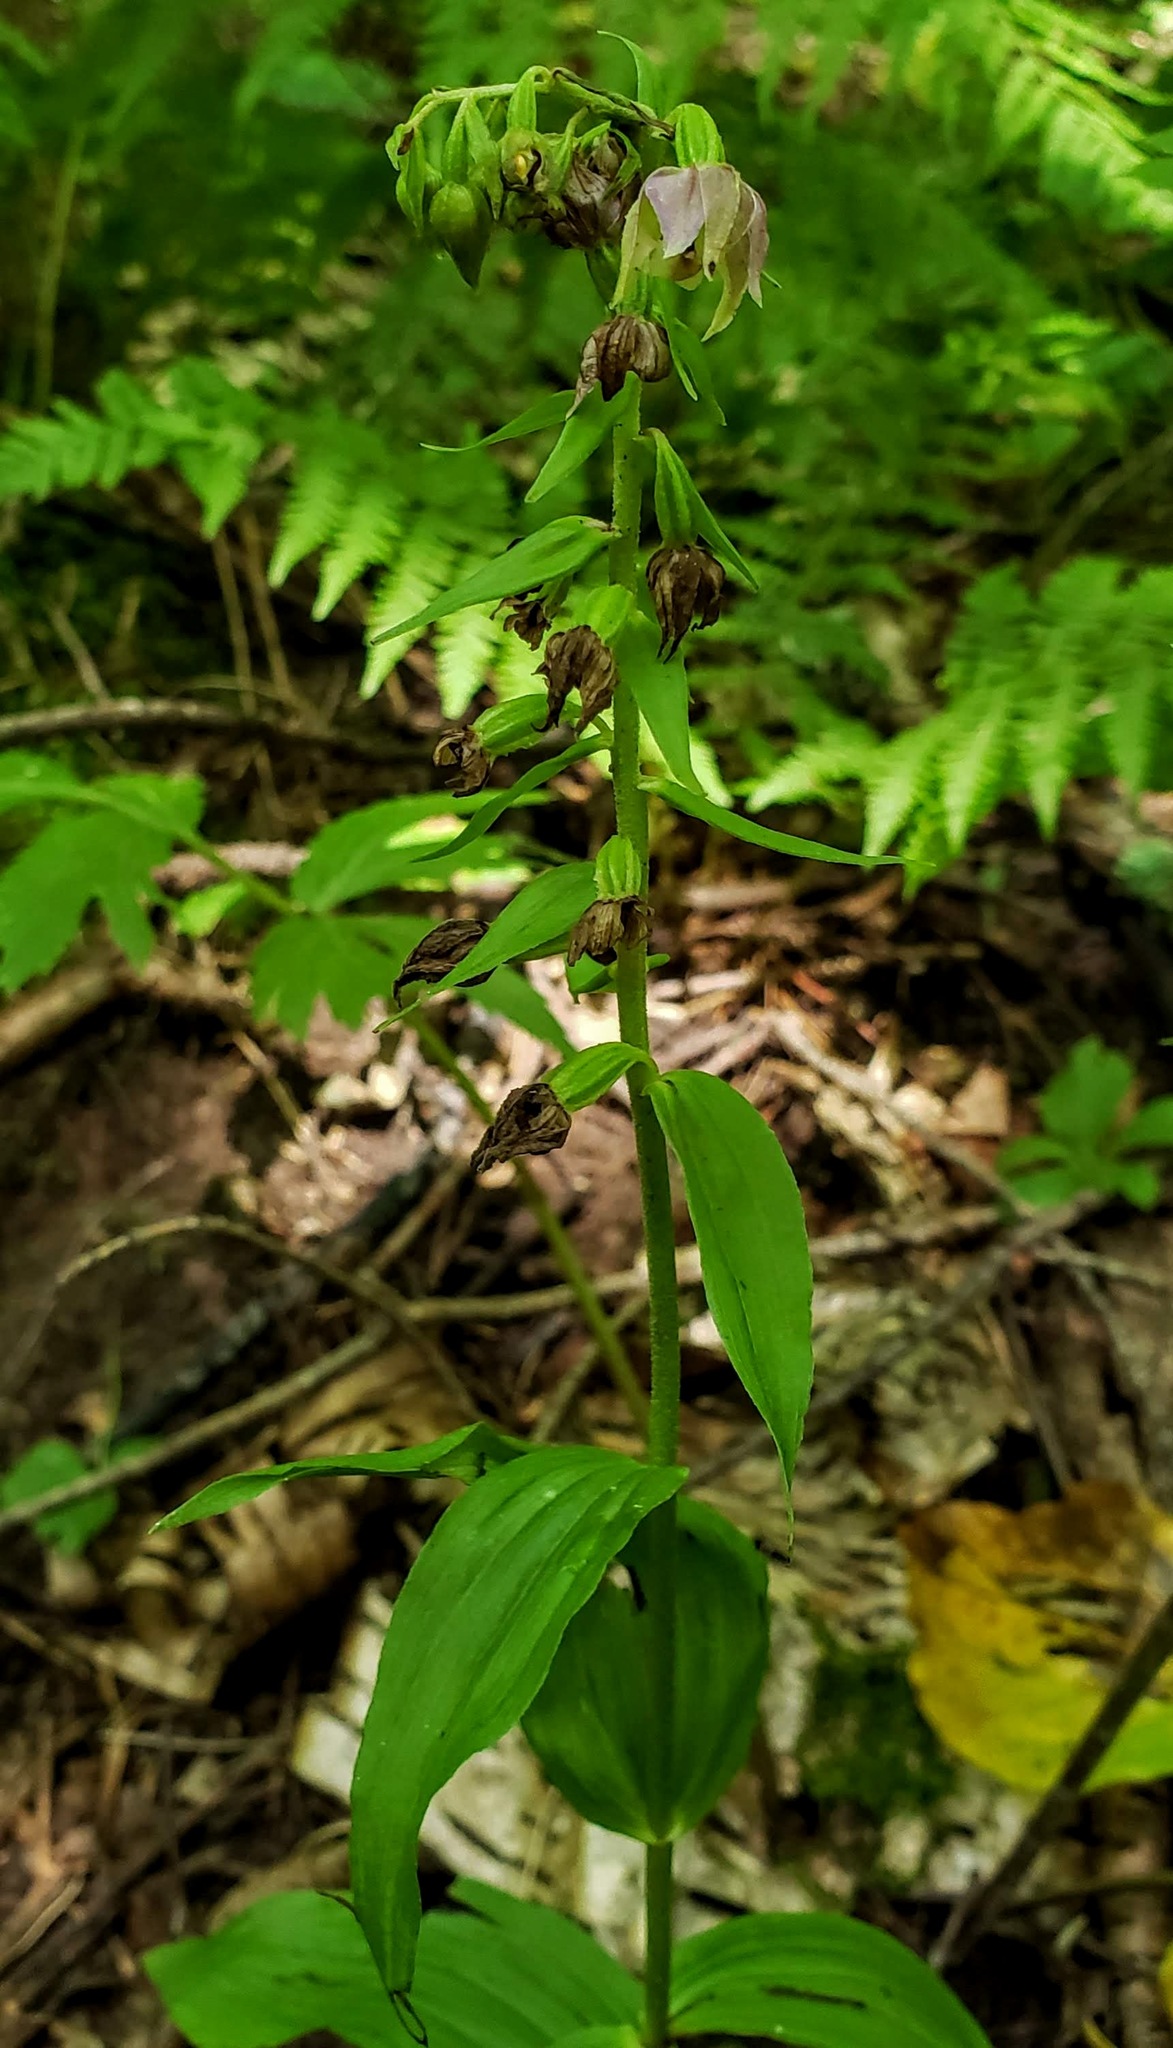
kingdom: Plantae
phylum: Tracheophyta
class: Liliopsida
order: Asparagales
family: Orchidaceae
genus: Epipactis
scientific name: Epipactis helleborine
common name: Broad-leaved helleborine
